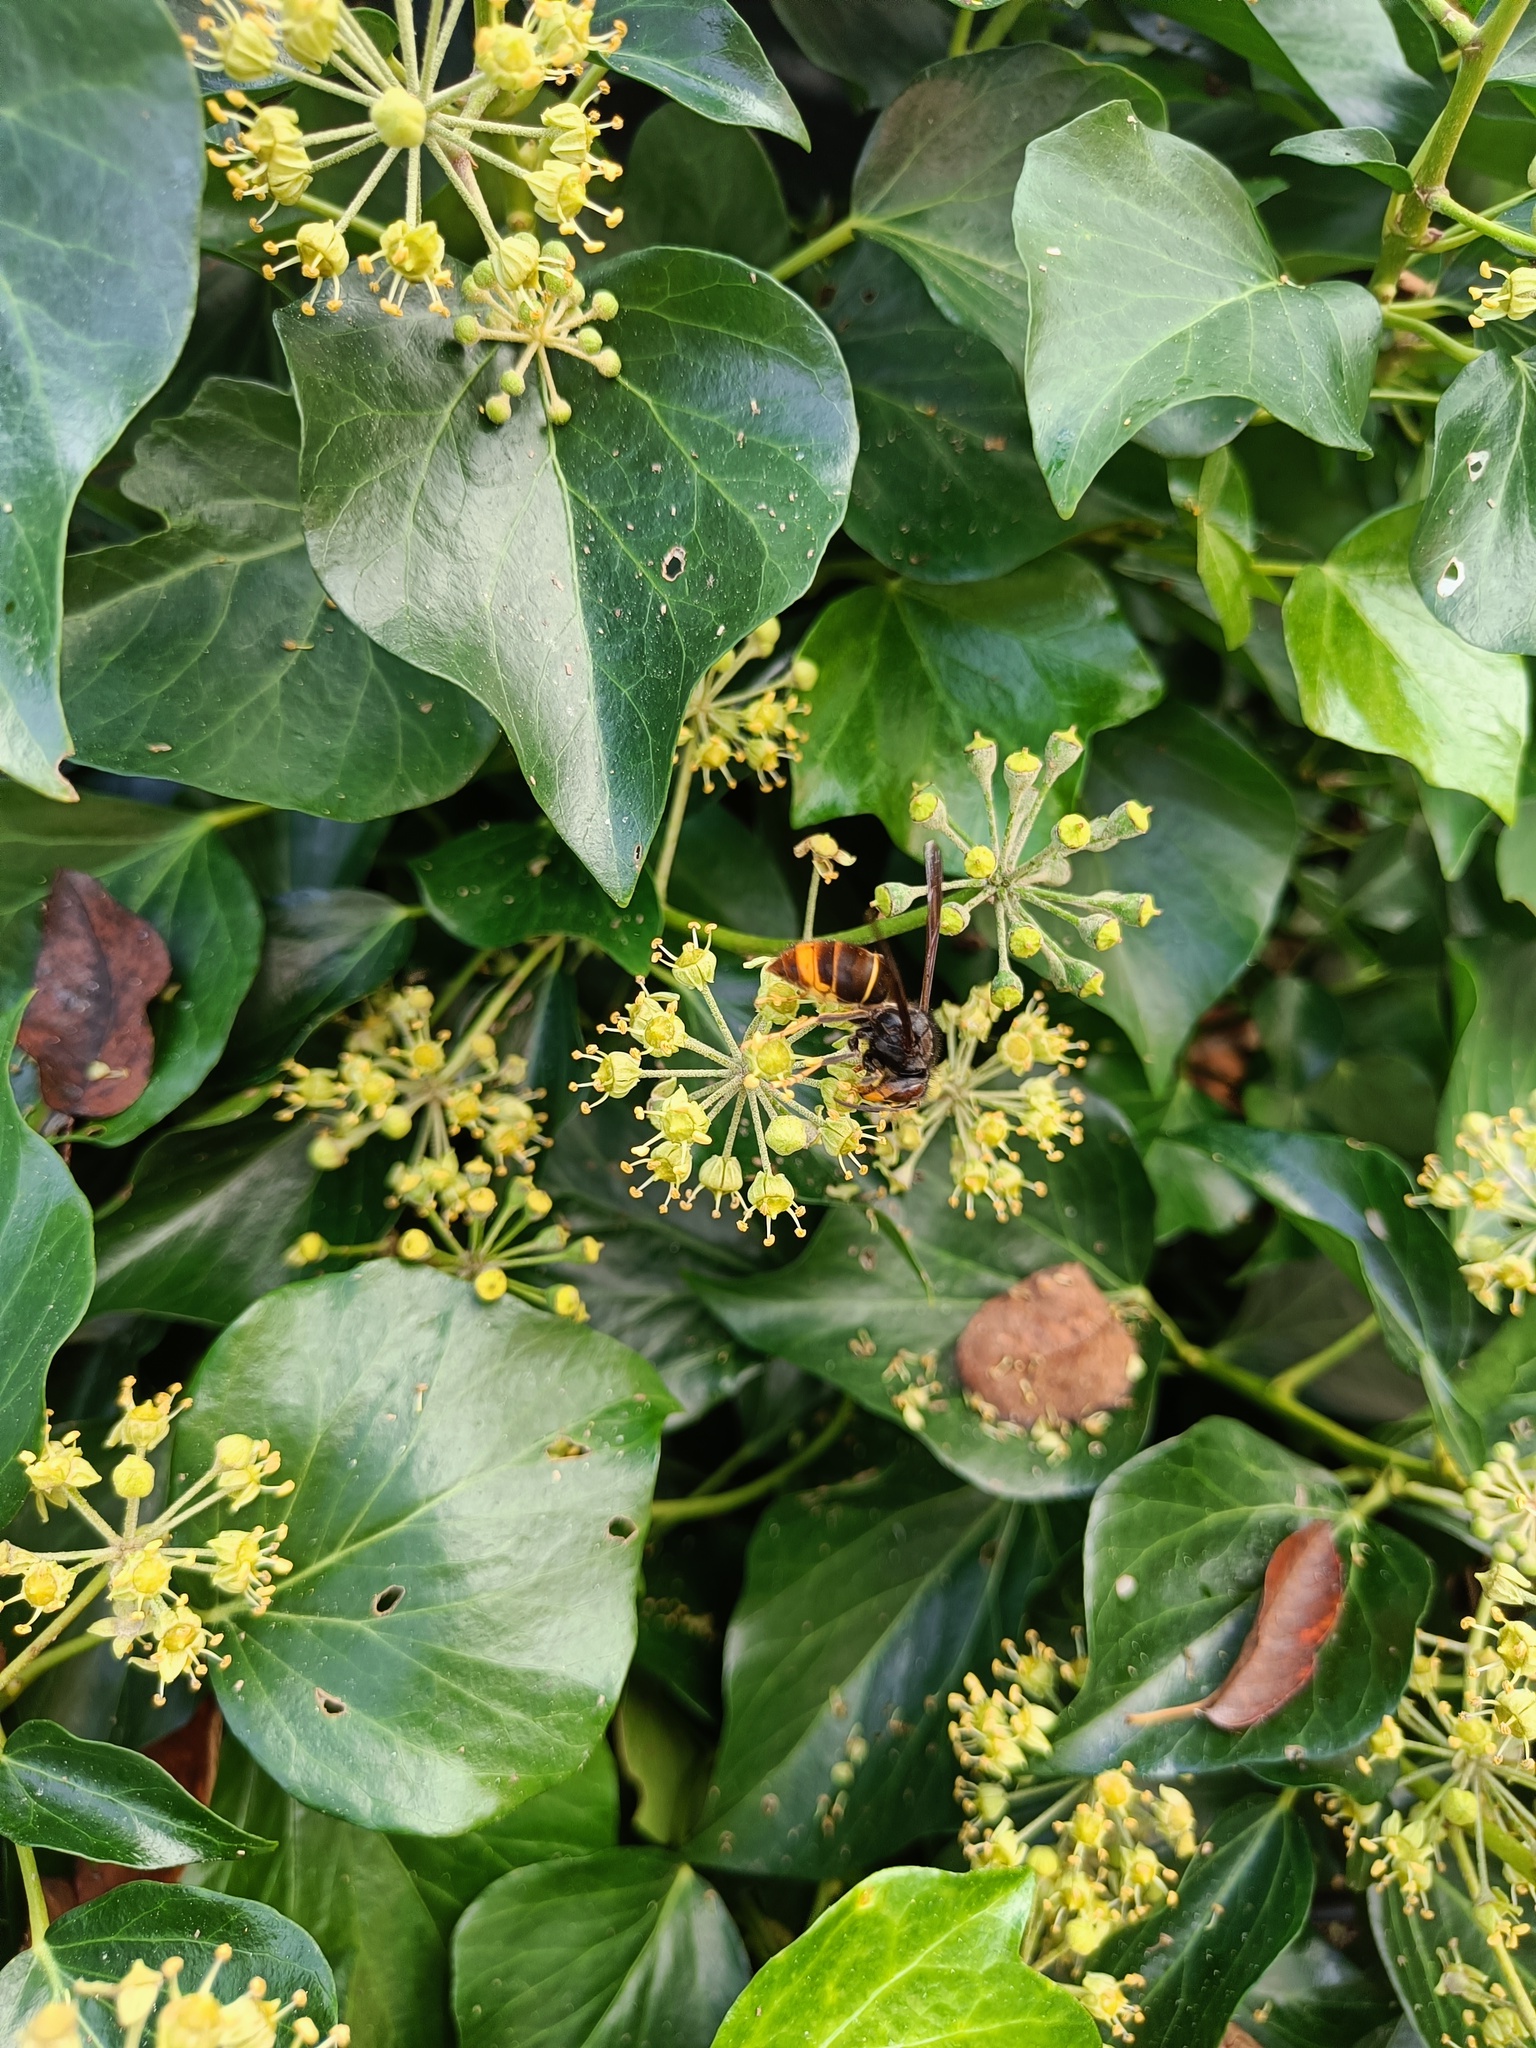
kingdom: Animalia
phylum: Arthropoda
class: Insecta
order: Hymenoptera
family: Vespidae
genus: Vespa
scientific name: Vespa velutina
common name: Asian hornet
